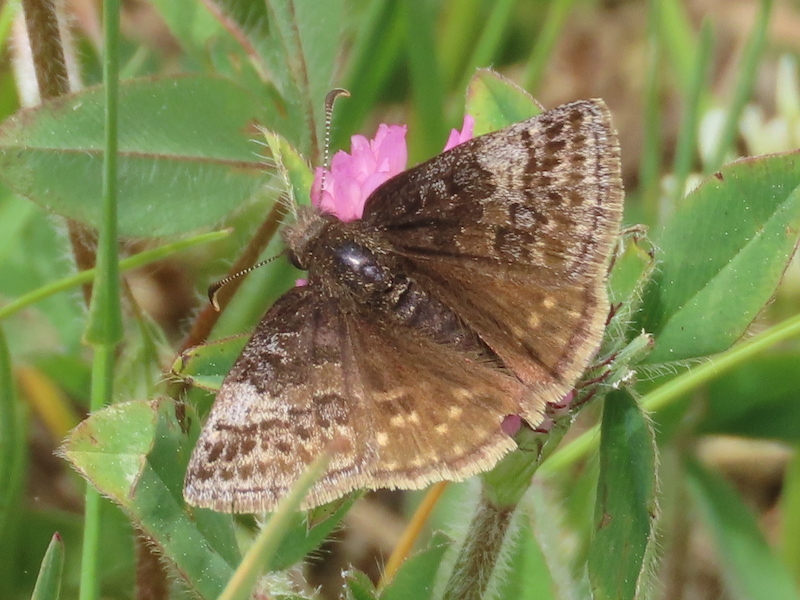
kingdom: Animalia
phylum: Arthropoda
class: Insecta
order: Lepidoptera
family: Hesperiidae
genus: Erynnis
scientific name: Erynnis icelus
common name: Dreamy duskywing
